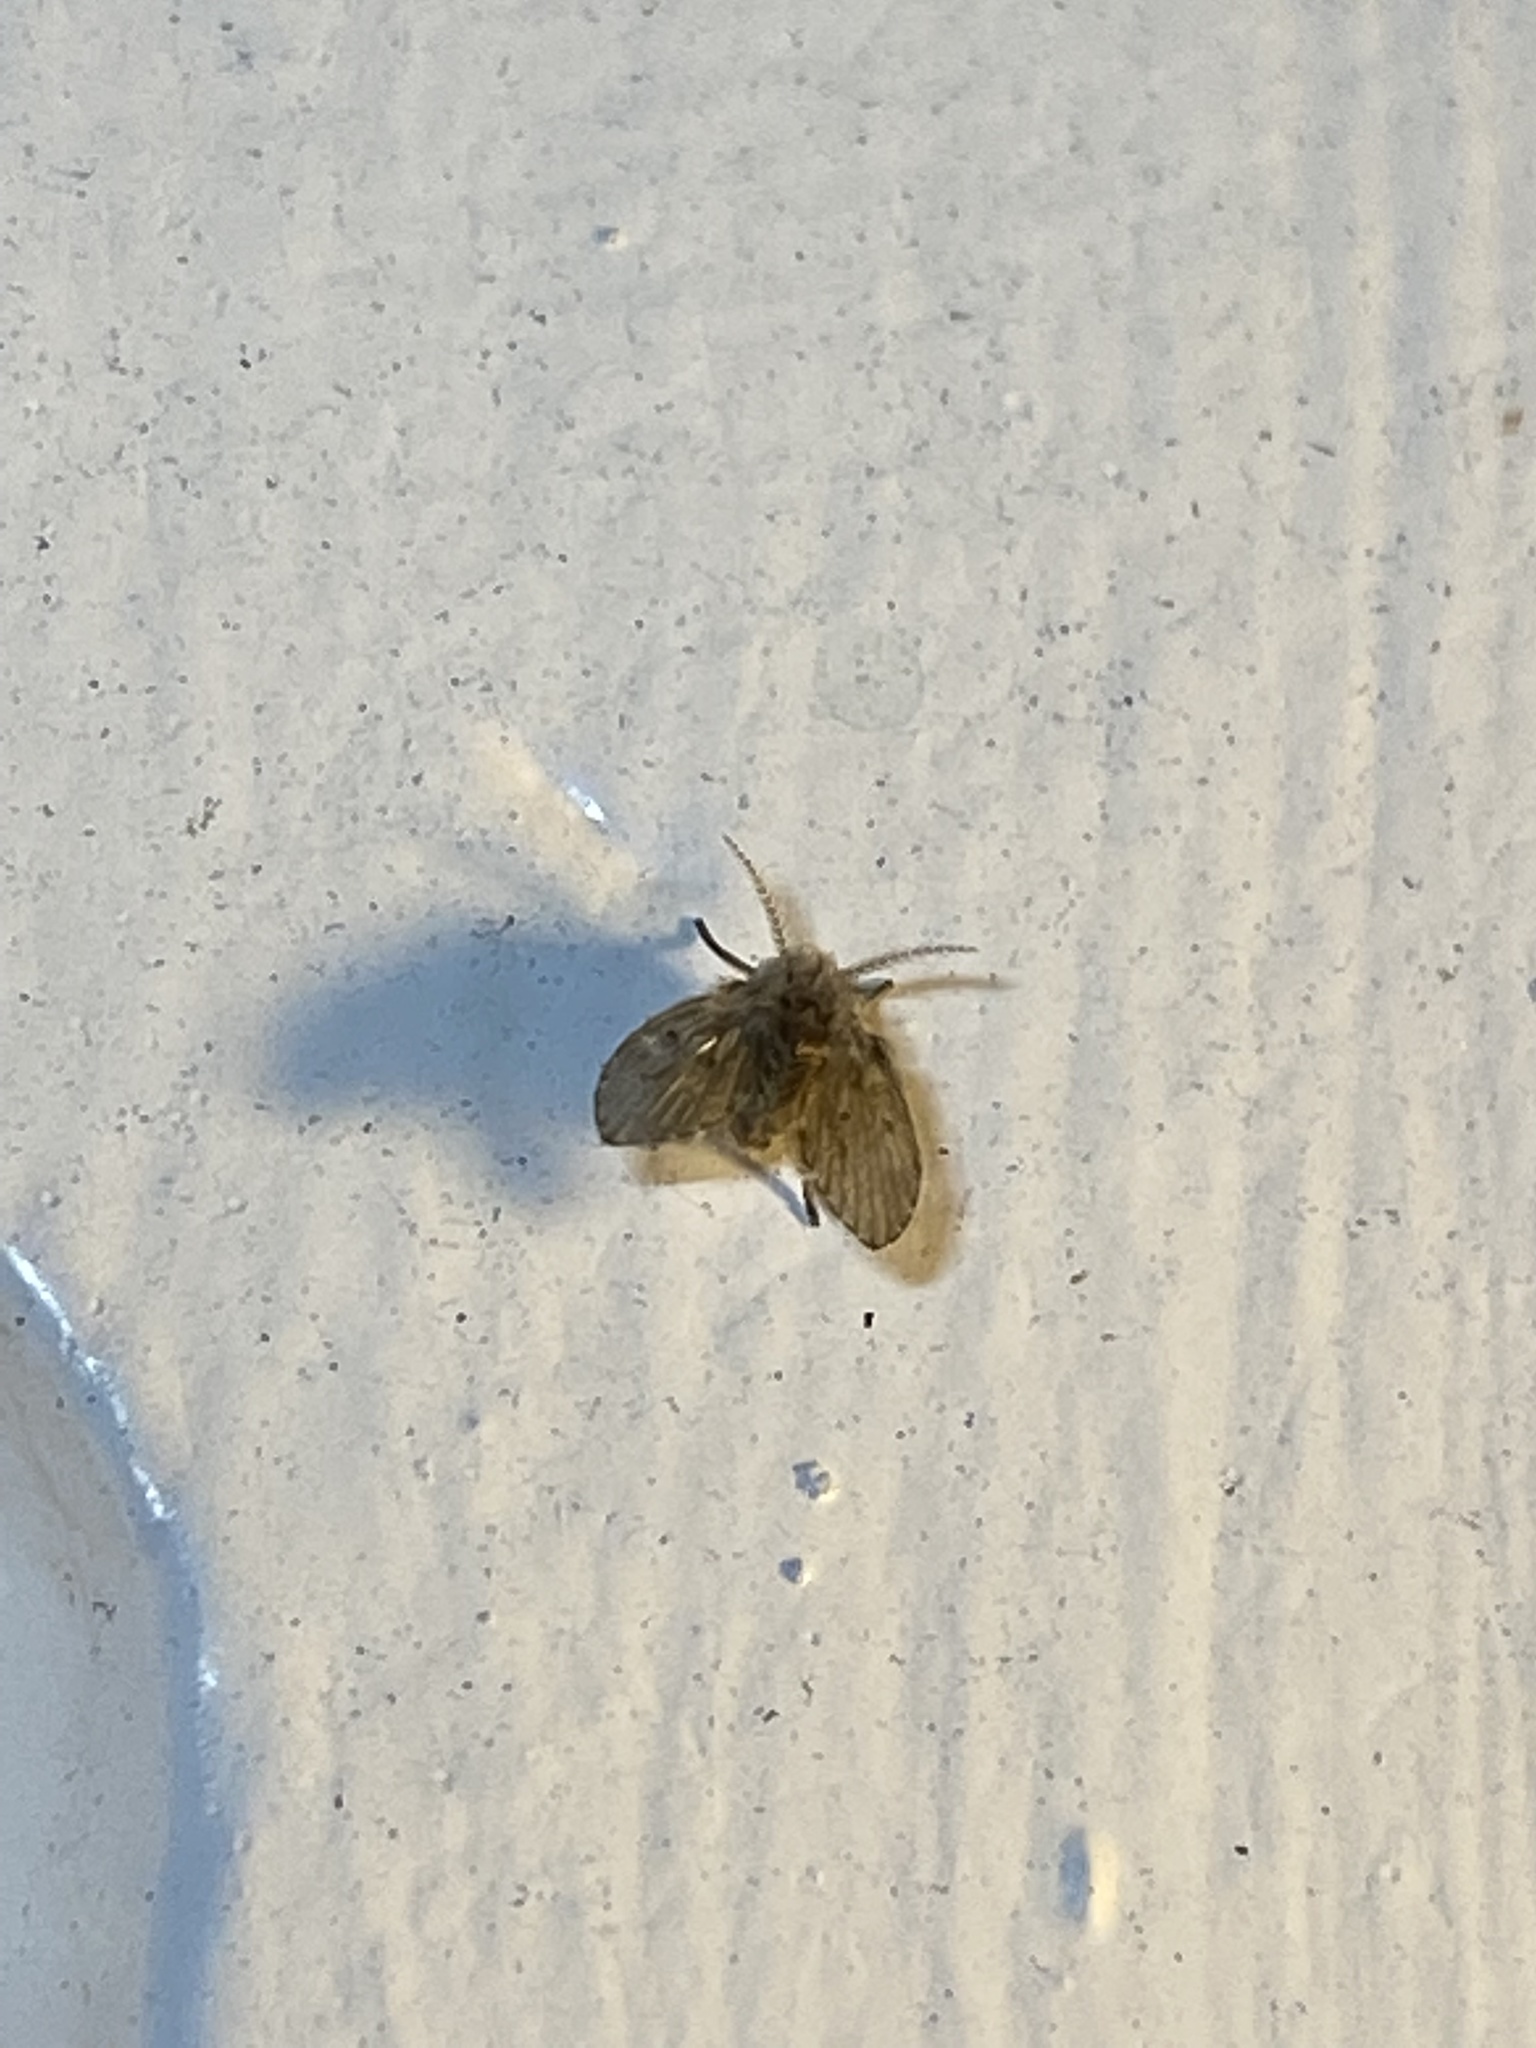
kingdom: Animalia
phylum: Arthropoda
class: Insecta
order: Diptera
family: Psychodidae
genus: Clogmia
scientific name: Clogmia albipunctatus
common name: White-spotted moth fly
